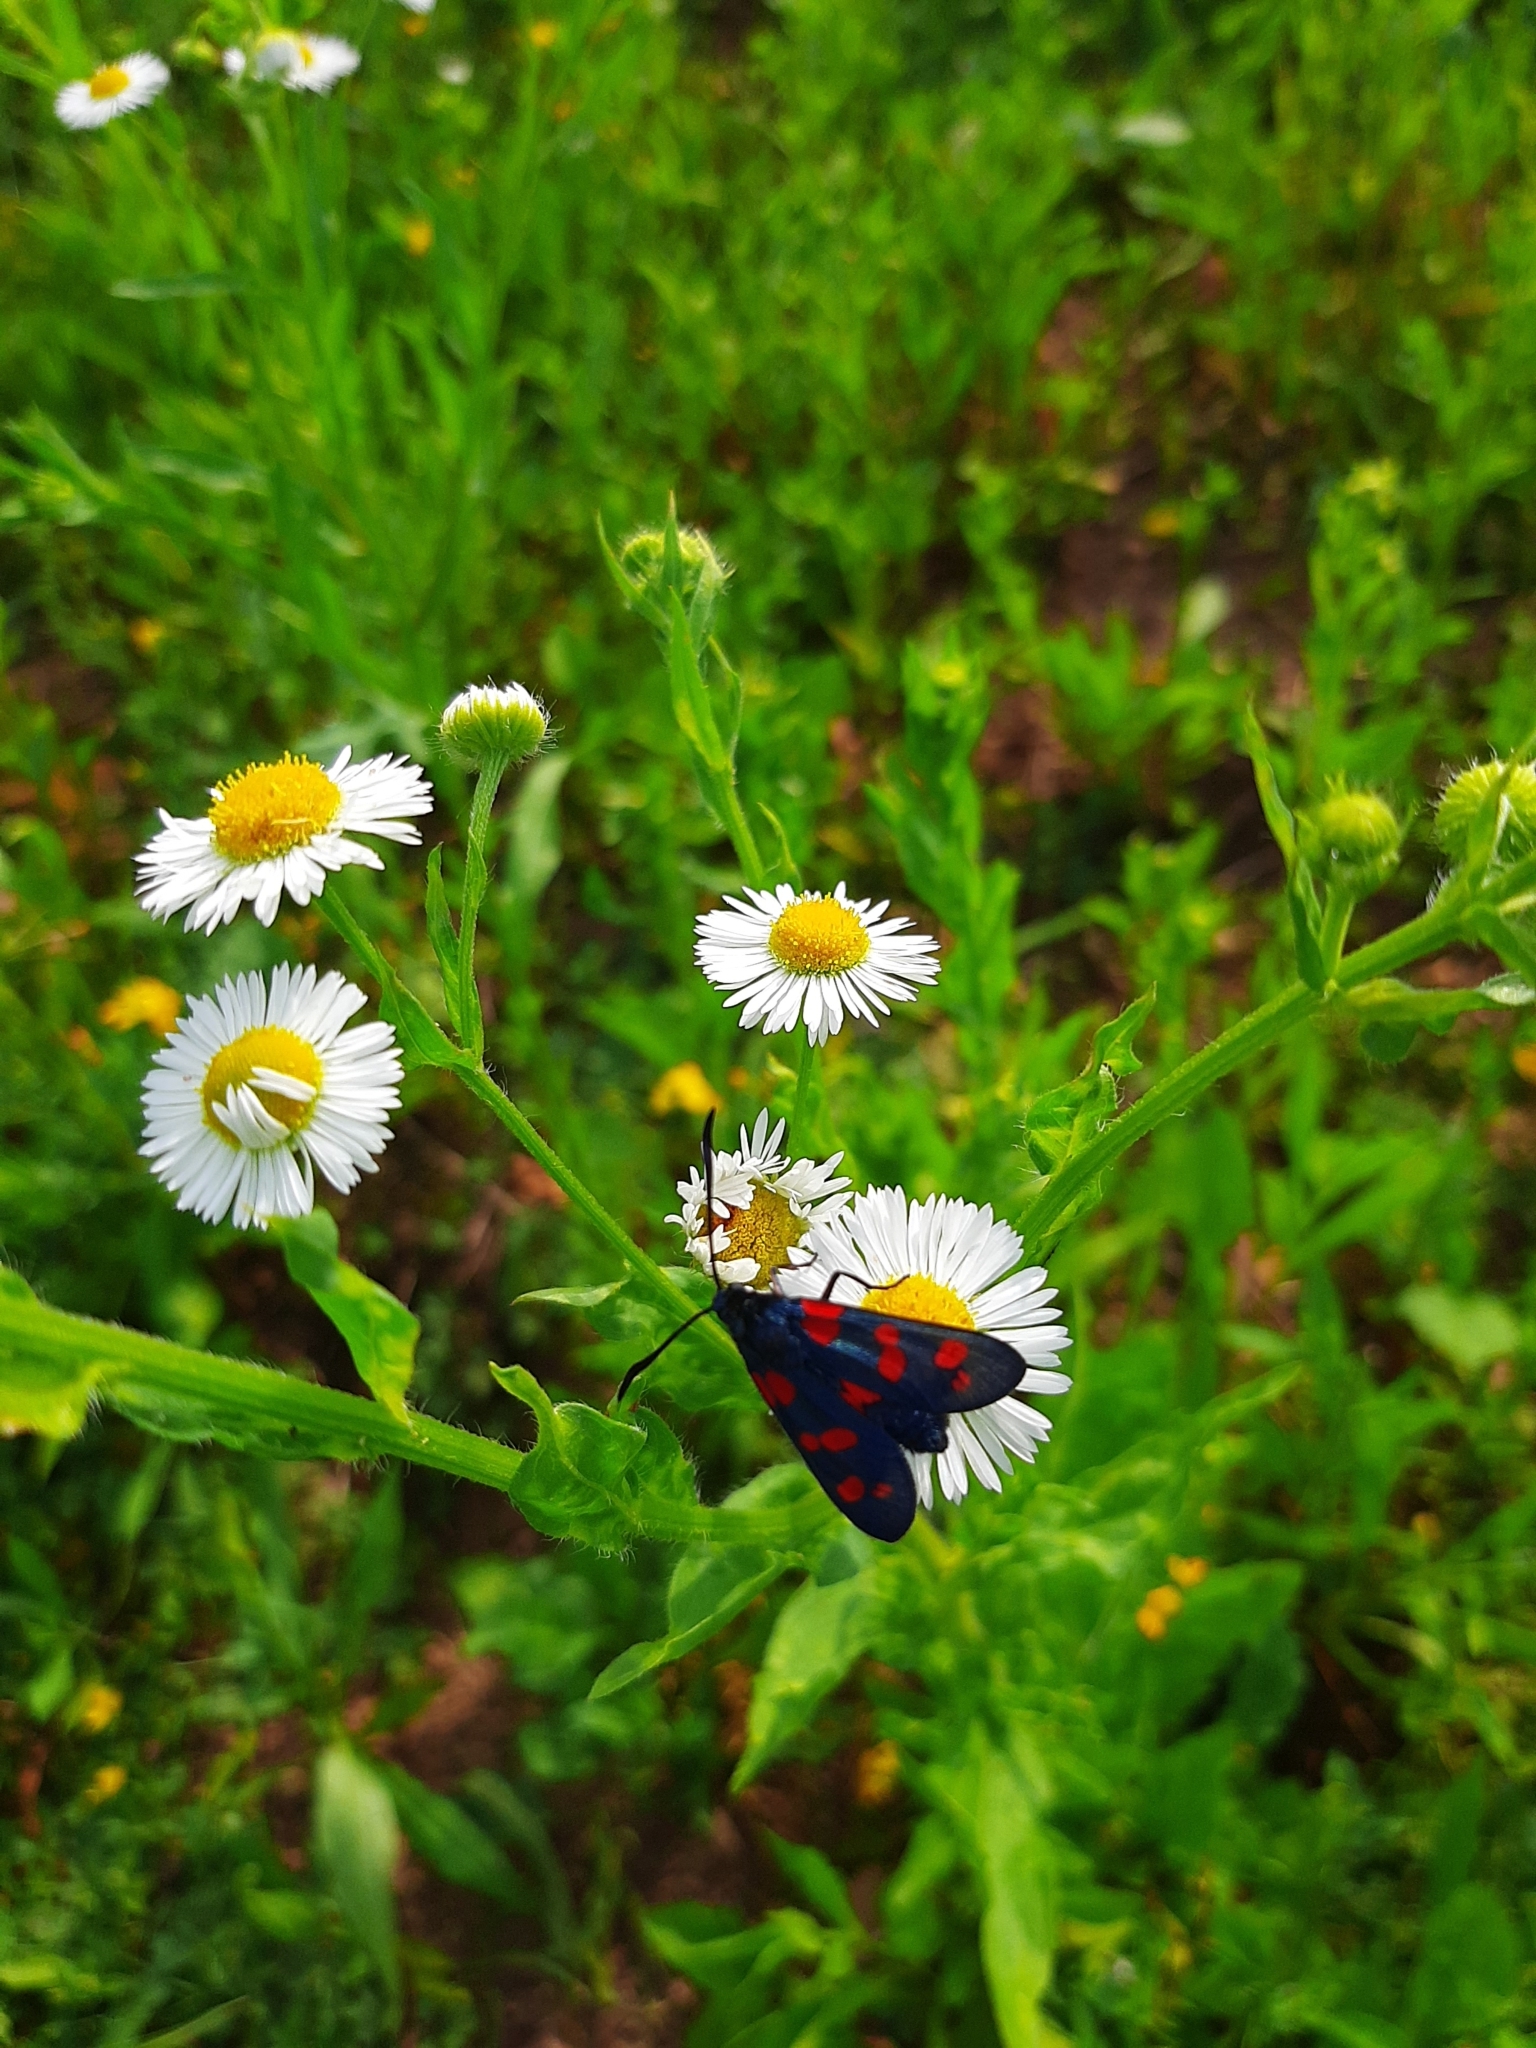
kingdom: Animalia
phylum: Arthropoda
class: Insecta
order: Lepidoptera
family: Zygaenidae
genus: Zygaena
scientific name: Zygaena filipendulae
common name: Six-spot burnet
